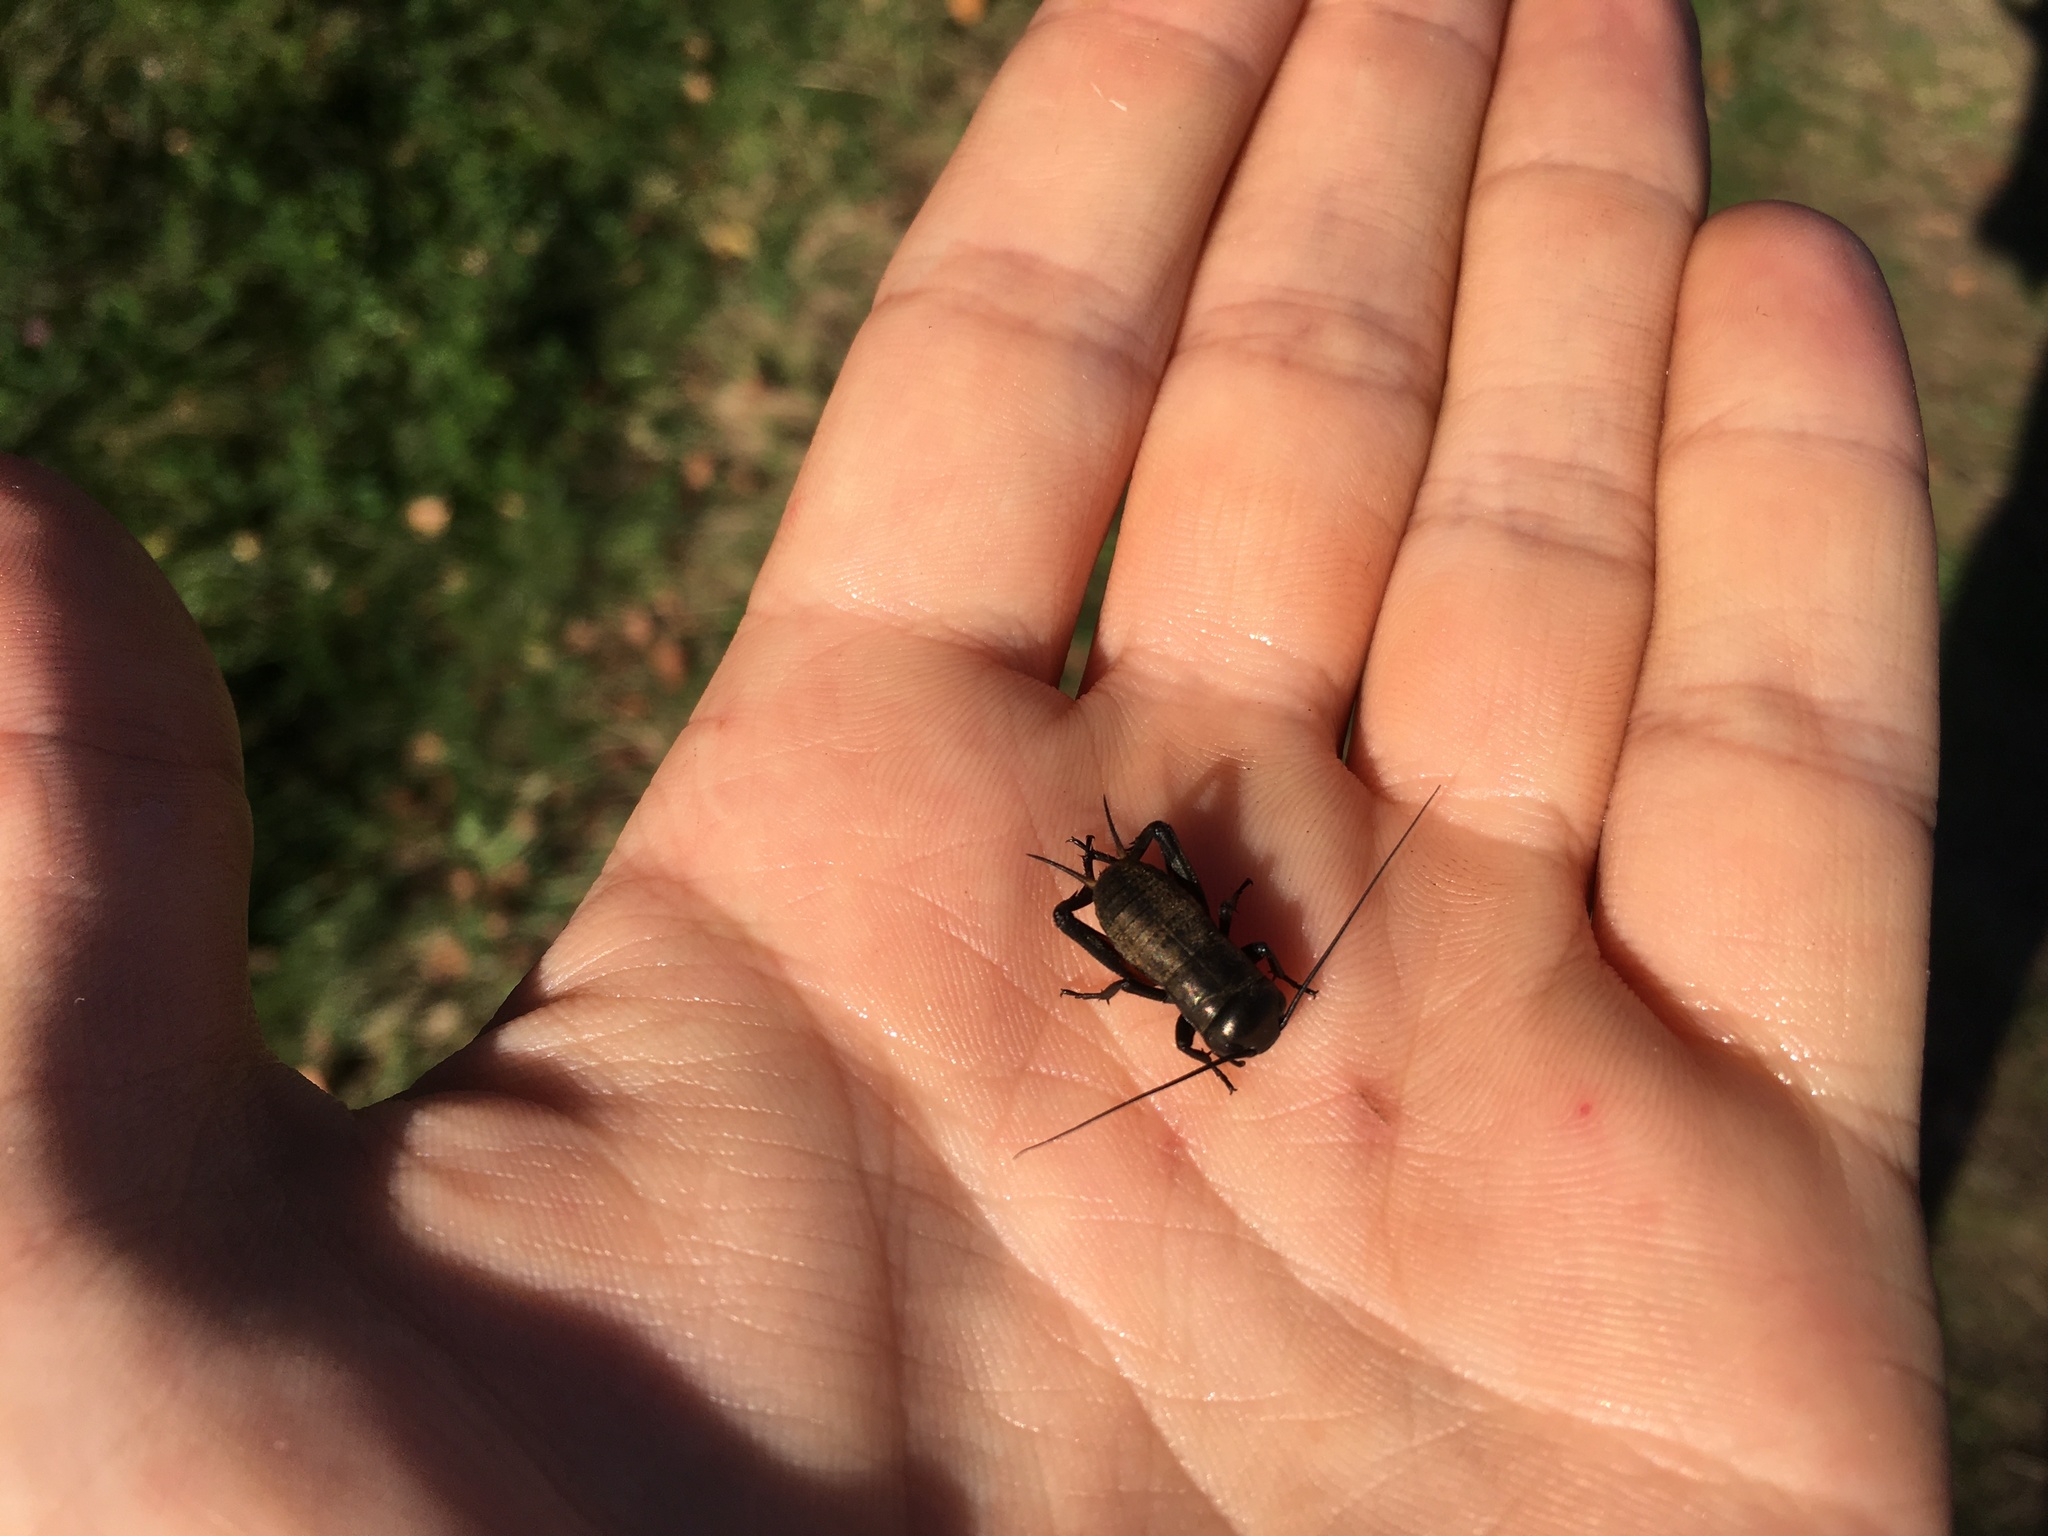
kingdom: Animalia
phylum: Arthropoda
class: Insecta
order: Orthoptera
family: Gryllidae
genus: Gryllus
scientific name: Gryllus campestris
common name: Field cricket
